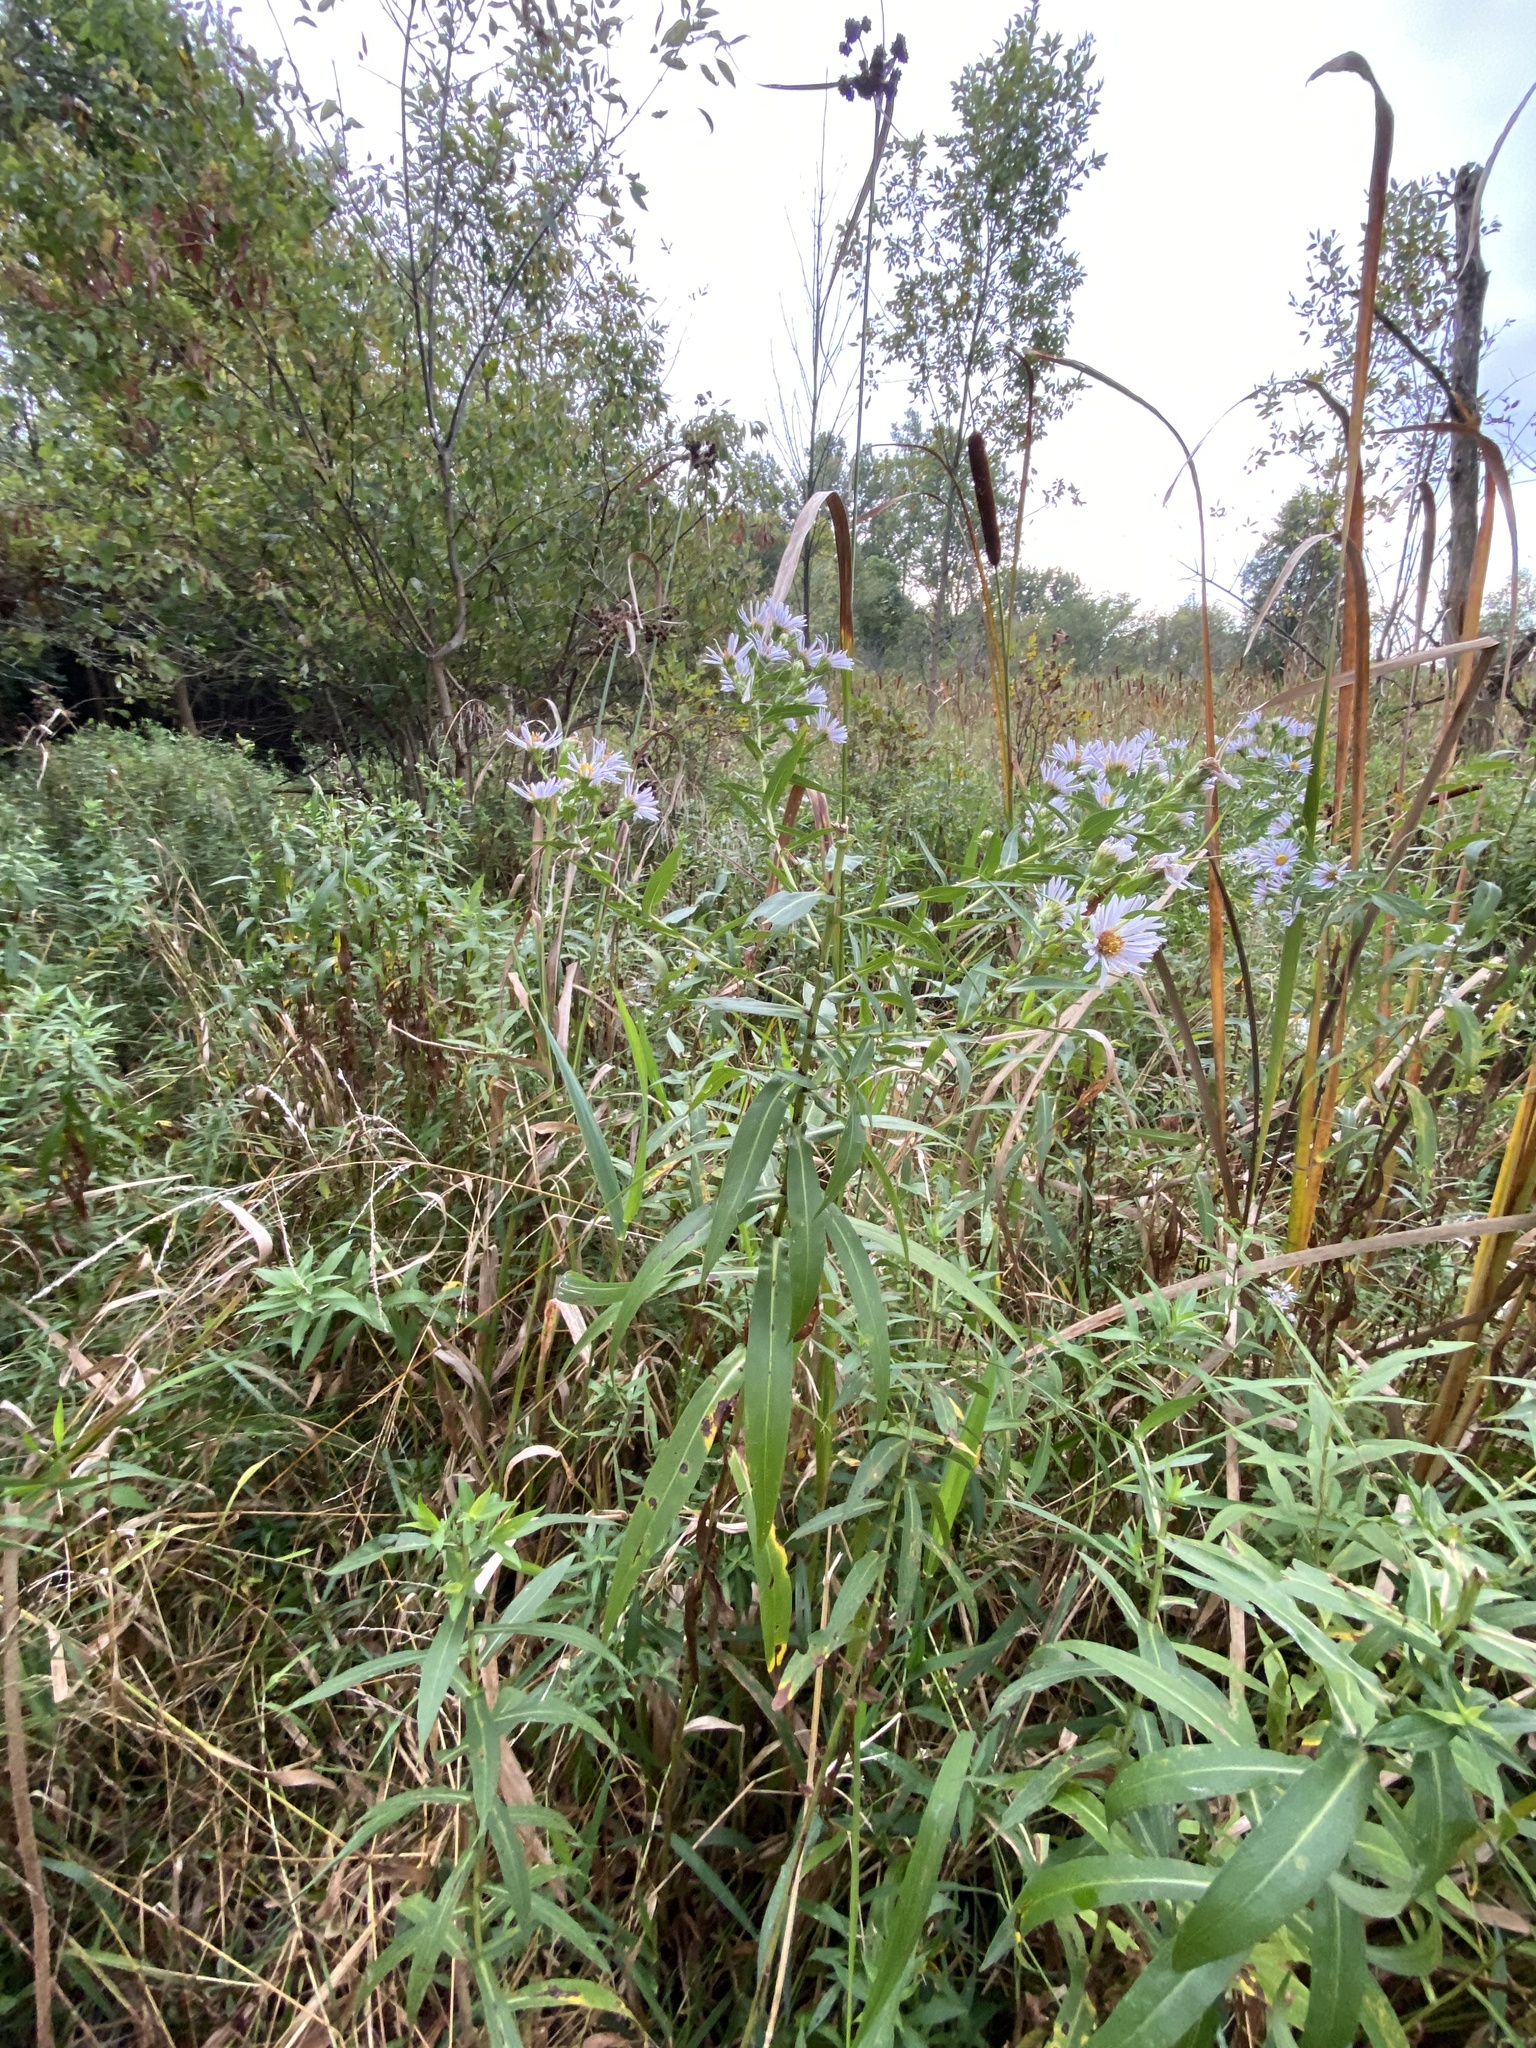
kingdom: Plantae
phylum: Tracheophyta
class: Liliopsida
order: Poales
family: Cyperaceae
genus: Scirpus
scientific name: Scirpus atrovirens
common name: Black bulrush
